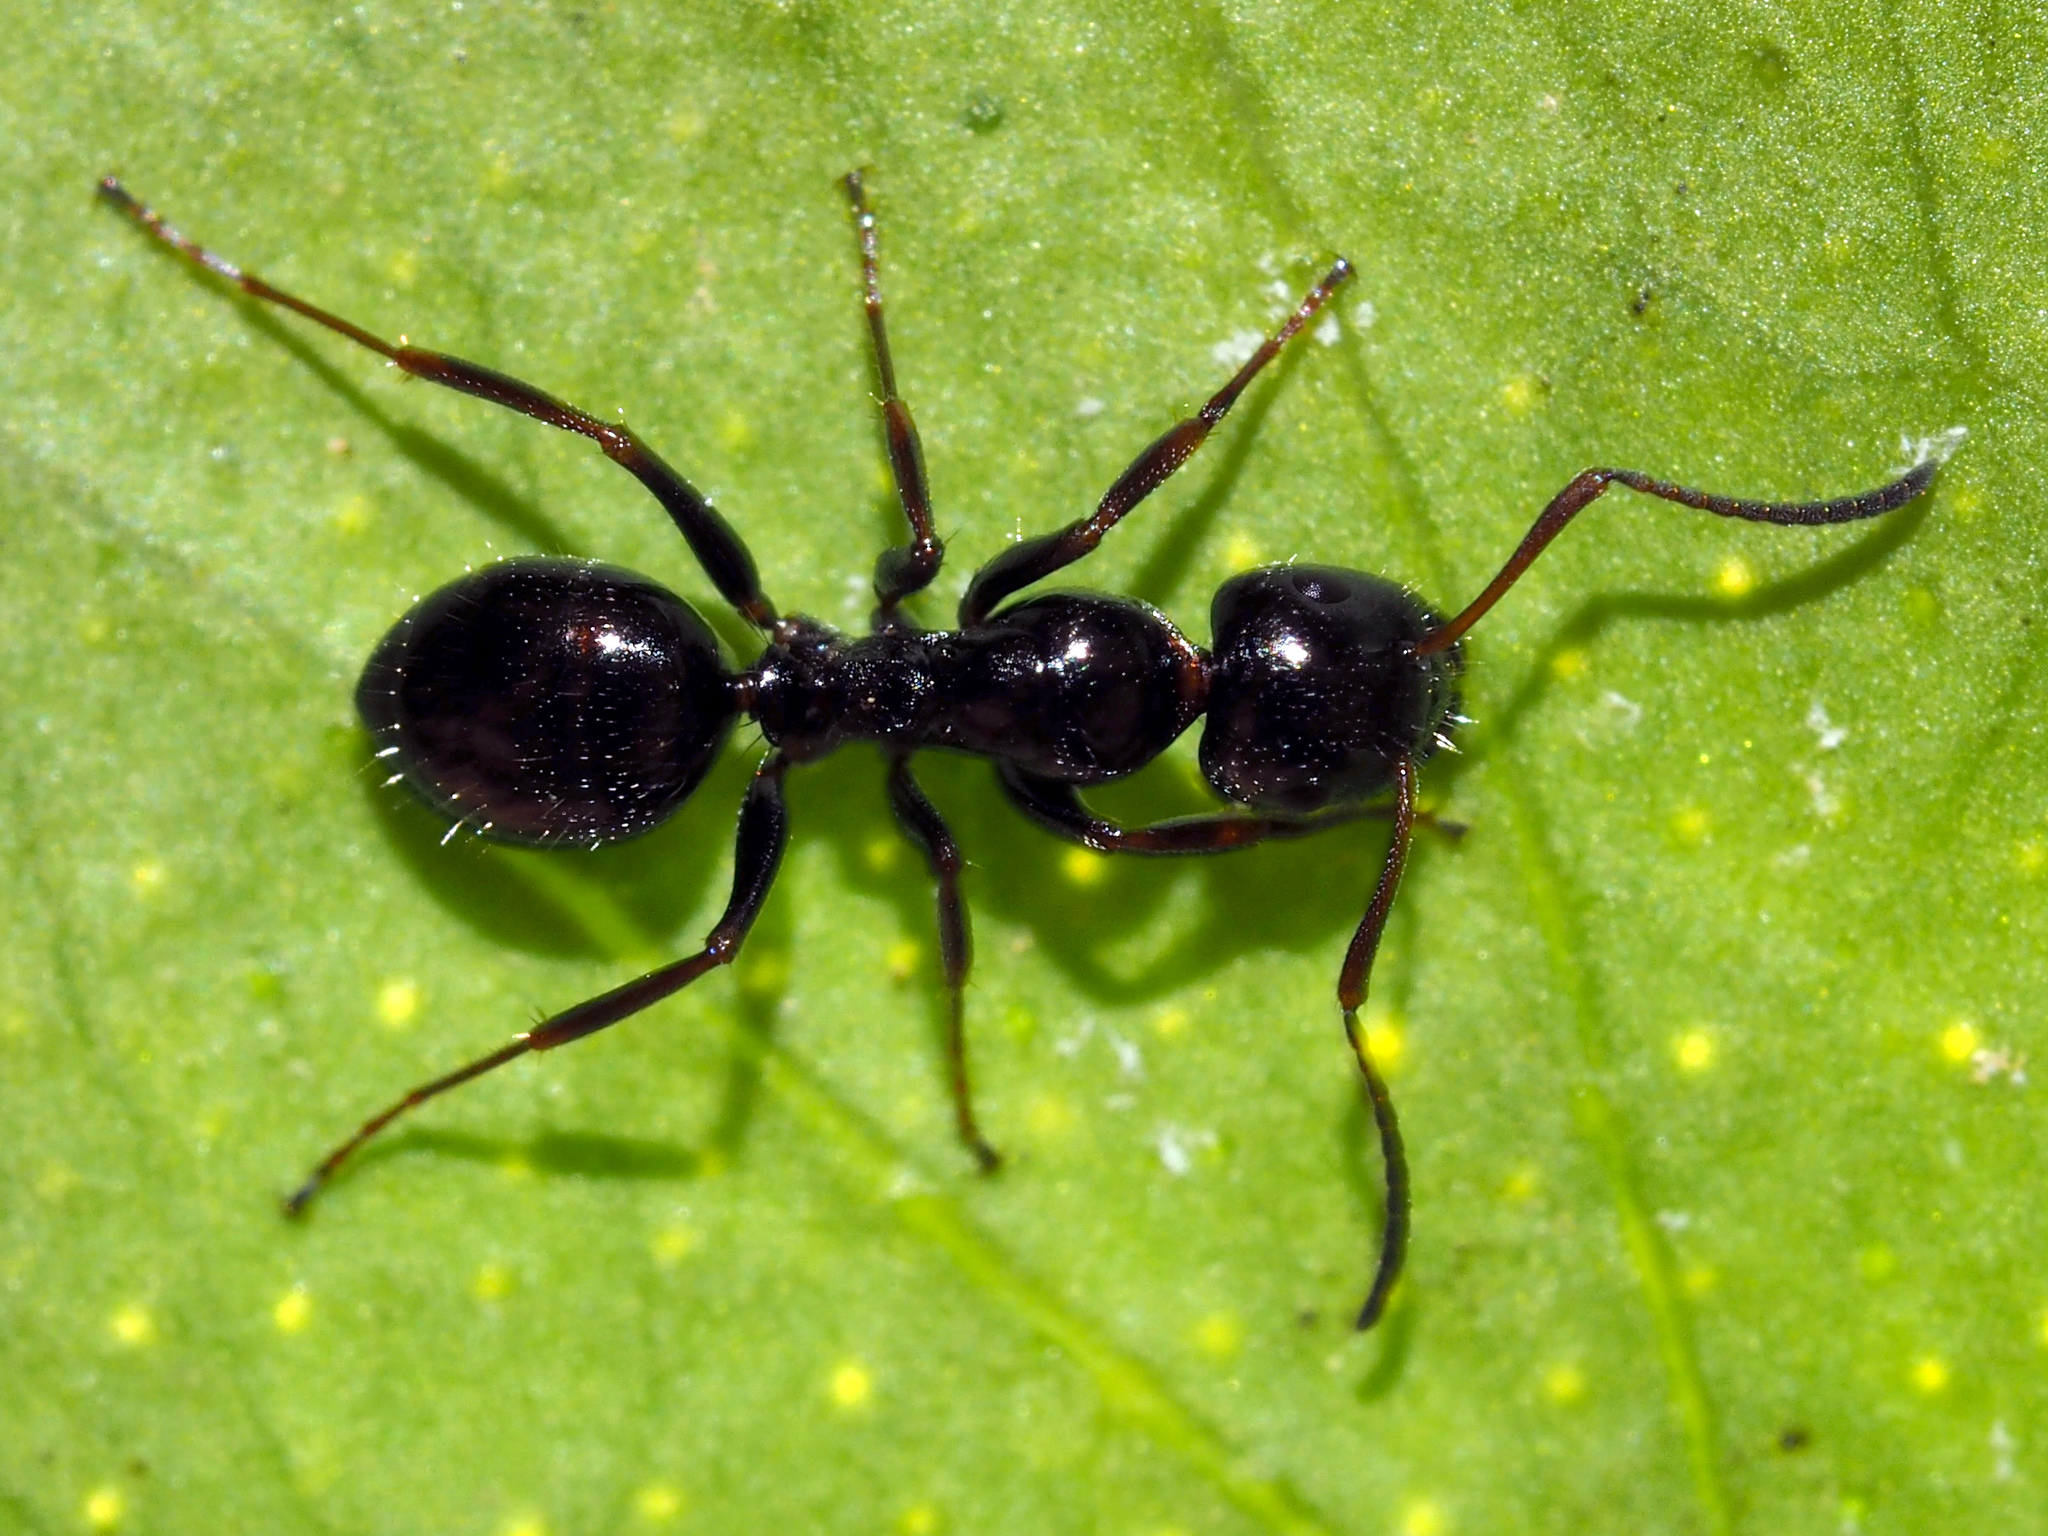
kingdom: Animalia
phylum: Arthropoda
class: Insecta
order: Hymenoptera
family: Formicidae
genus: Camponotus
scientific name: Camponotus piceus
